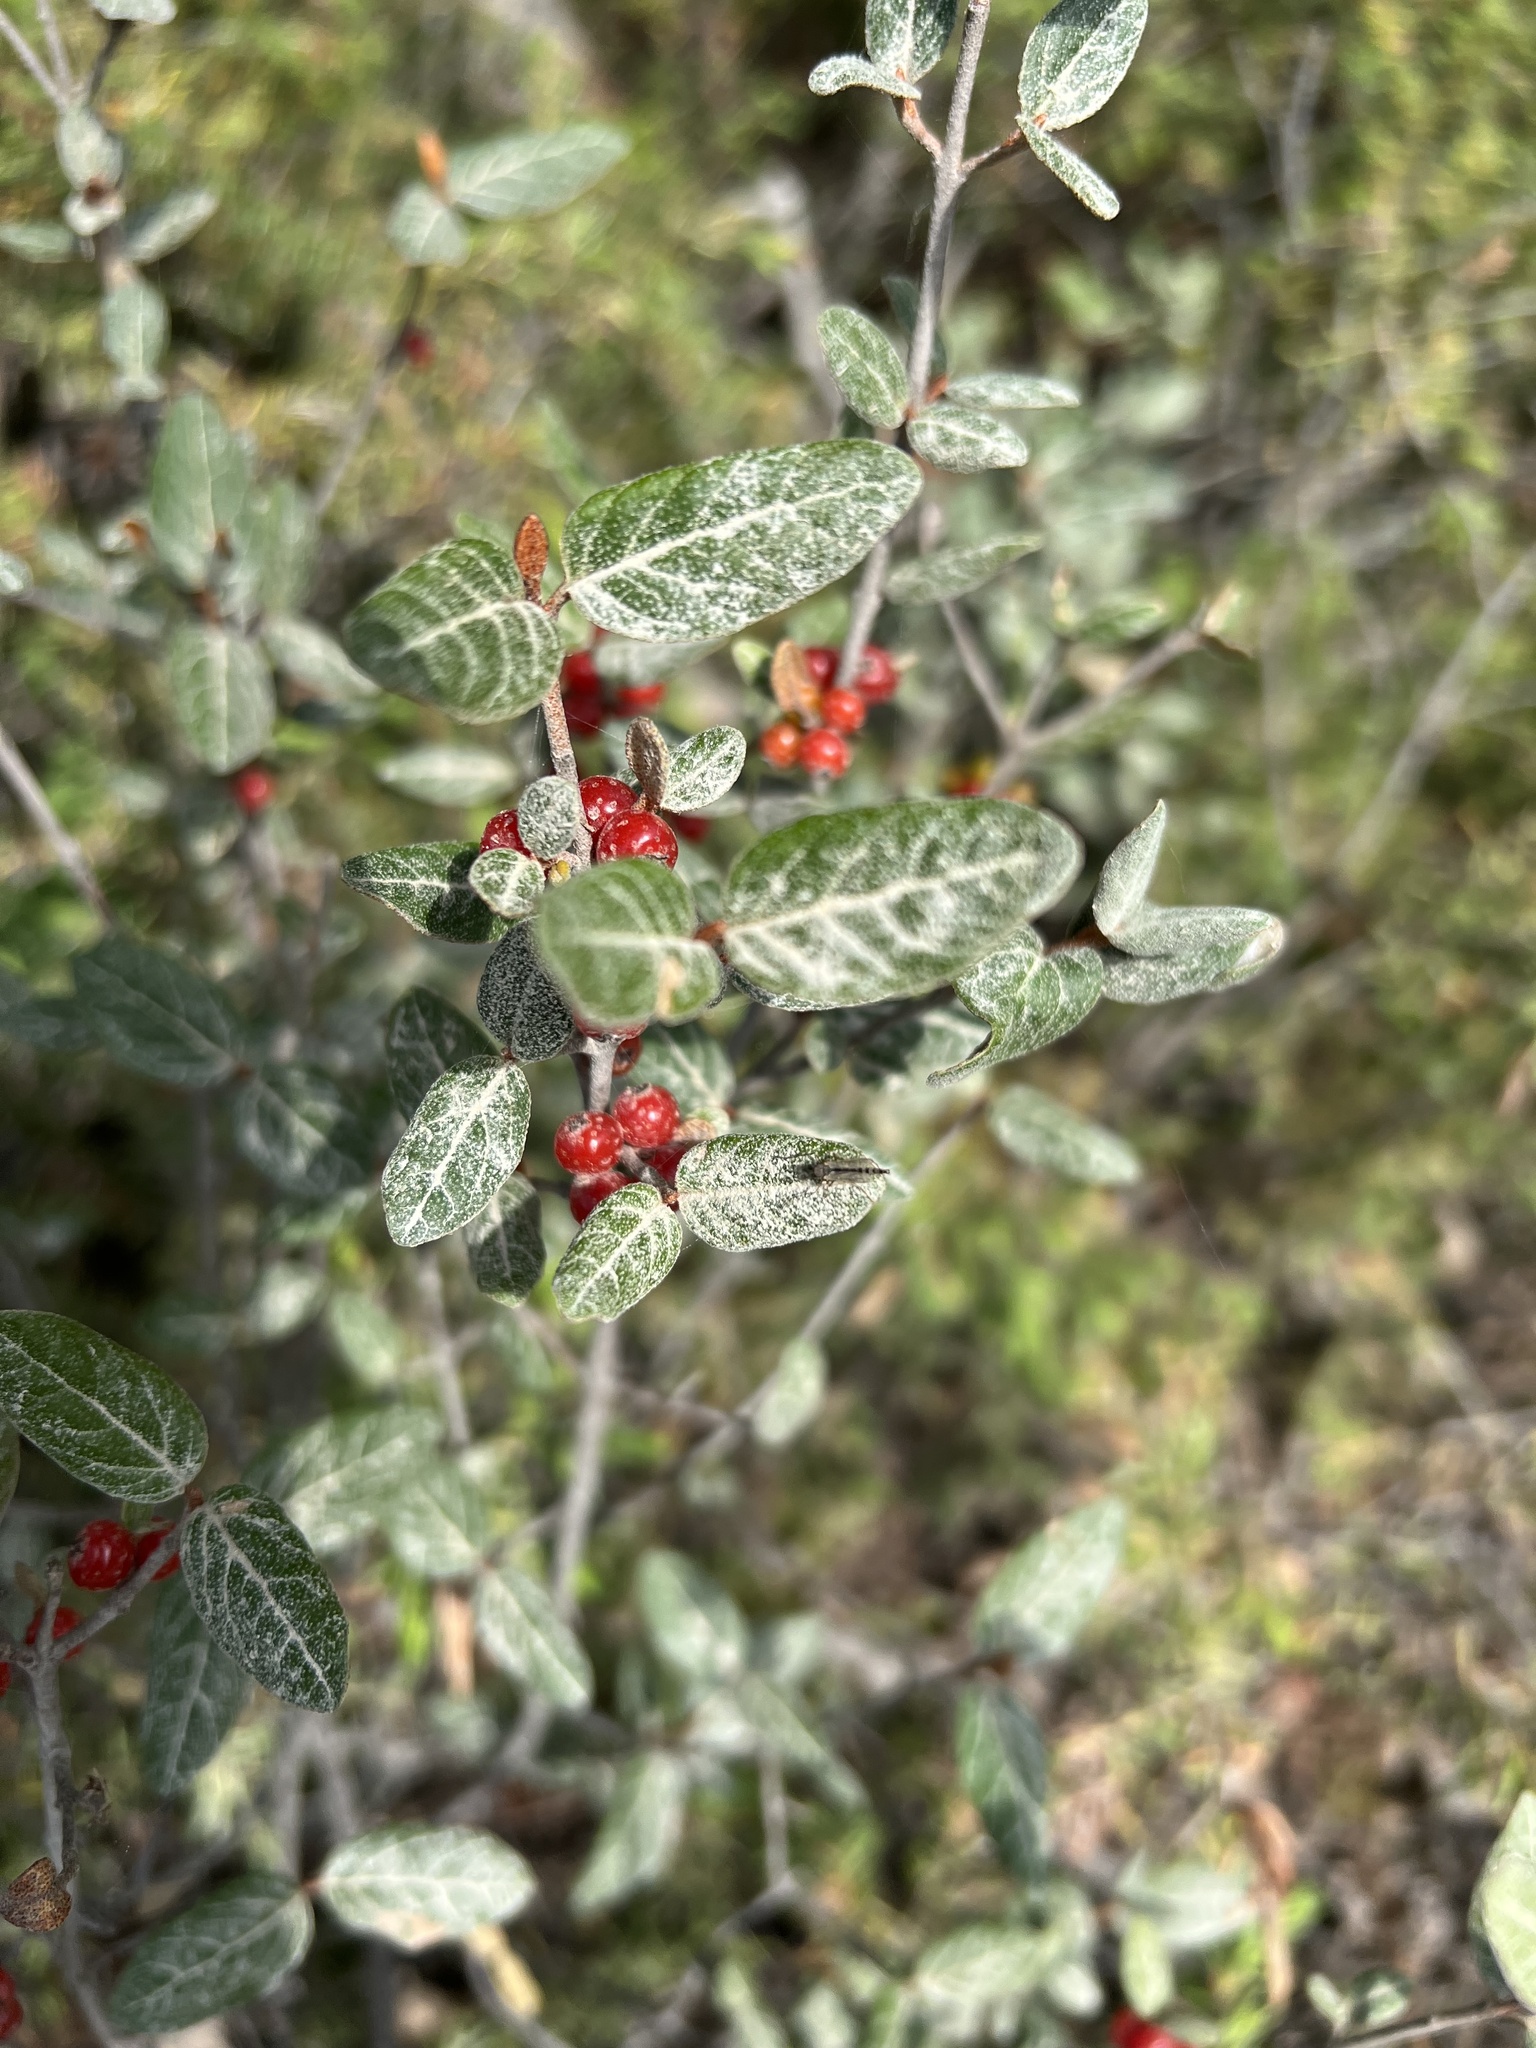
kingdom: Plantae
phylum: Tracheophyta
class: Magnoliopsida
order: Rosales
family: Elaeagnaceae
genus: Shepherdia
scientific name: Shepherdia canadensis
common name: Soapberry
